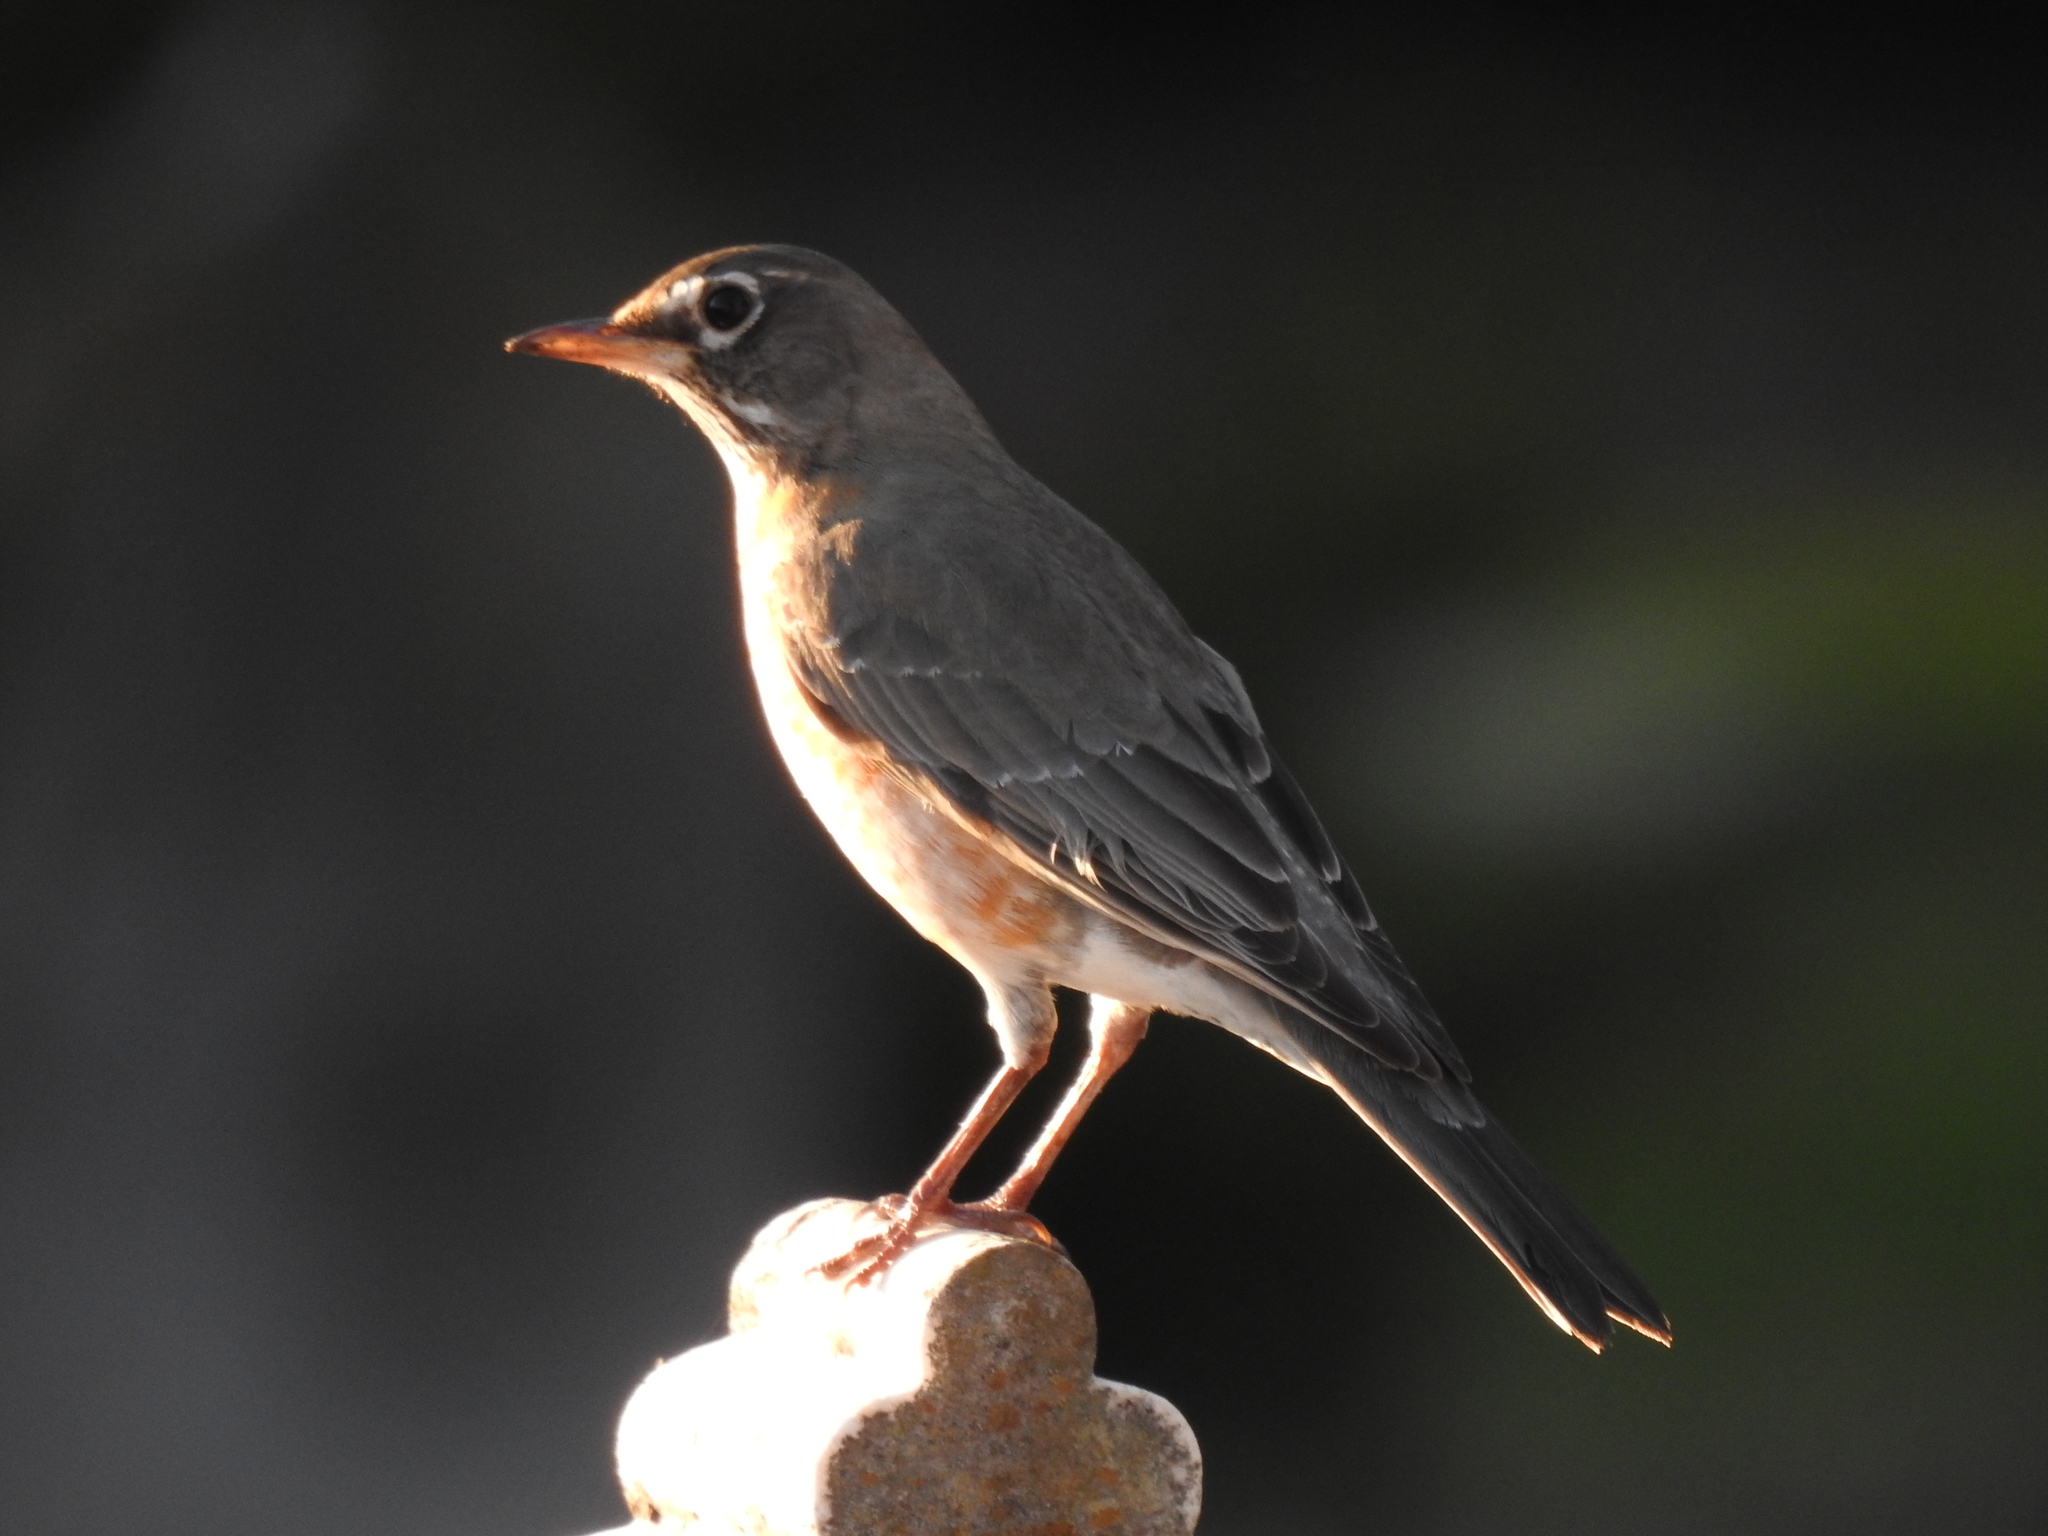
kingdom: Animalia
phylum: Chordata
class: Aves
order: Passeriformes
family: Turdidae
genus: Turdus
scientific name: Turdus migratorius
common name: American robin
